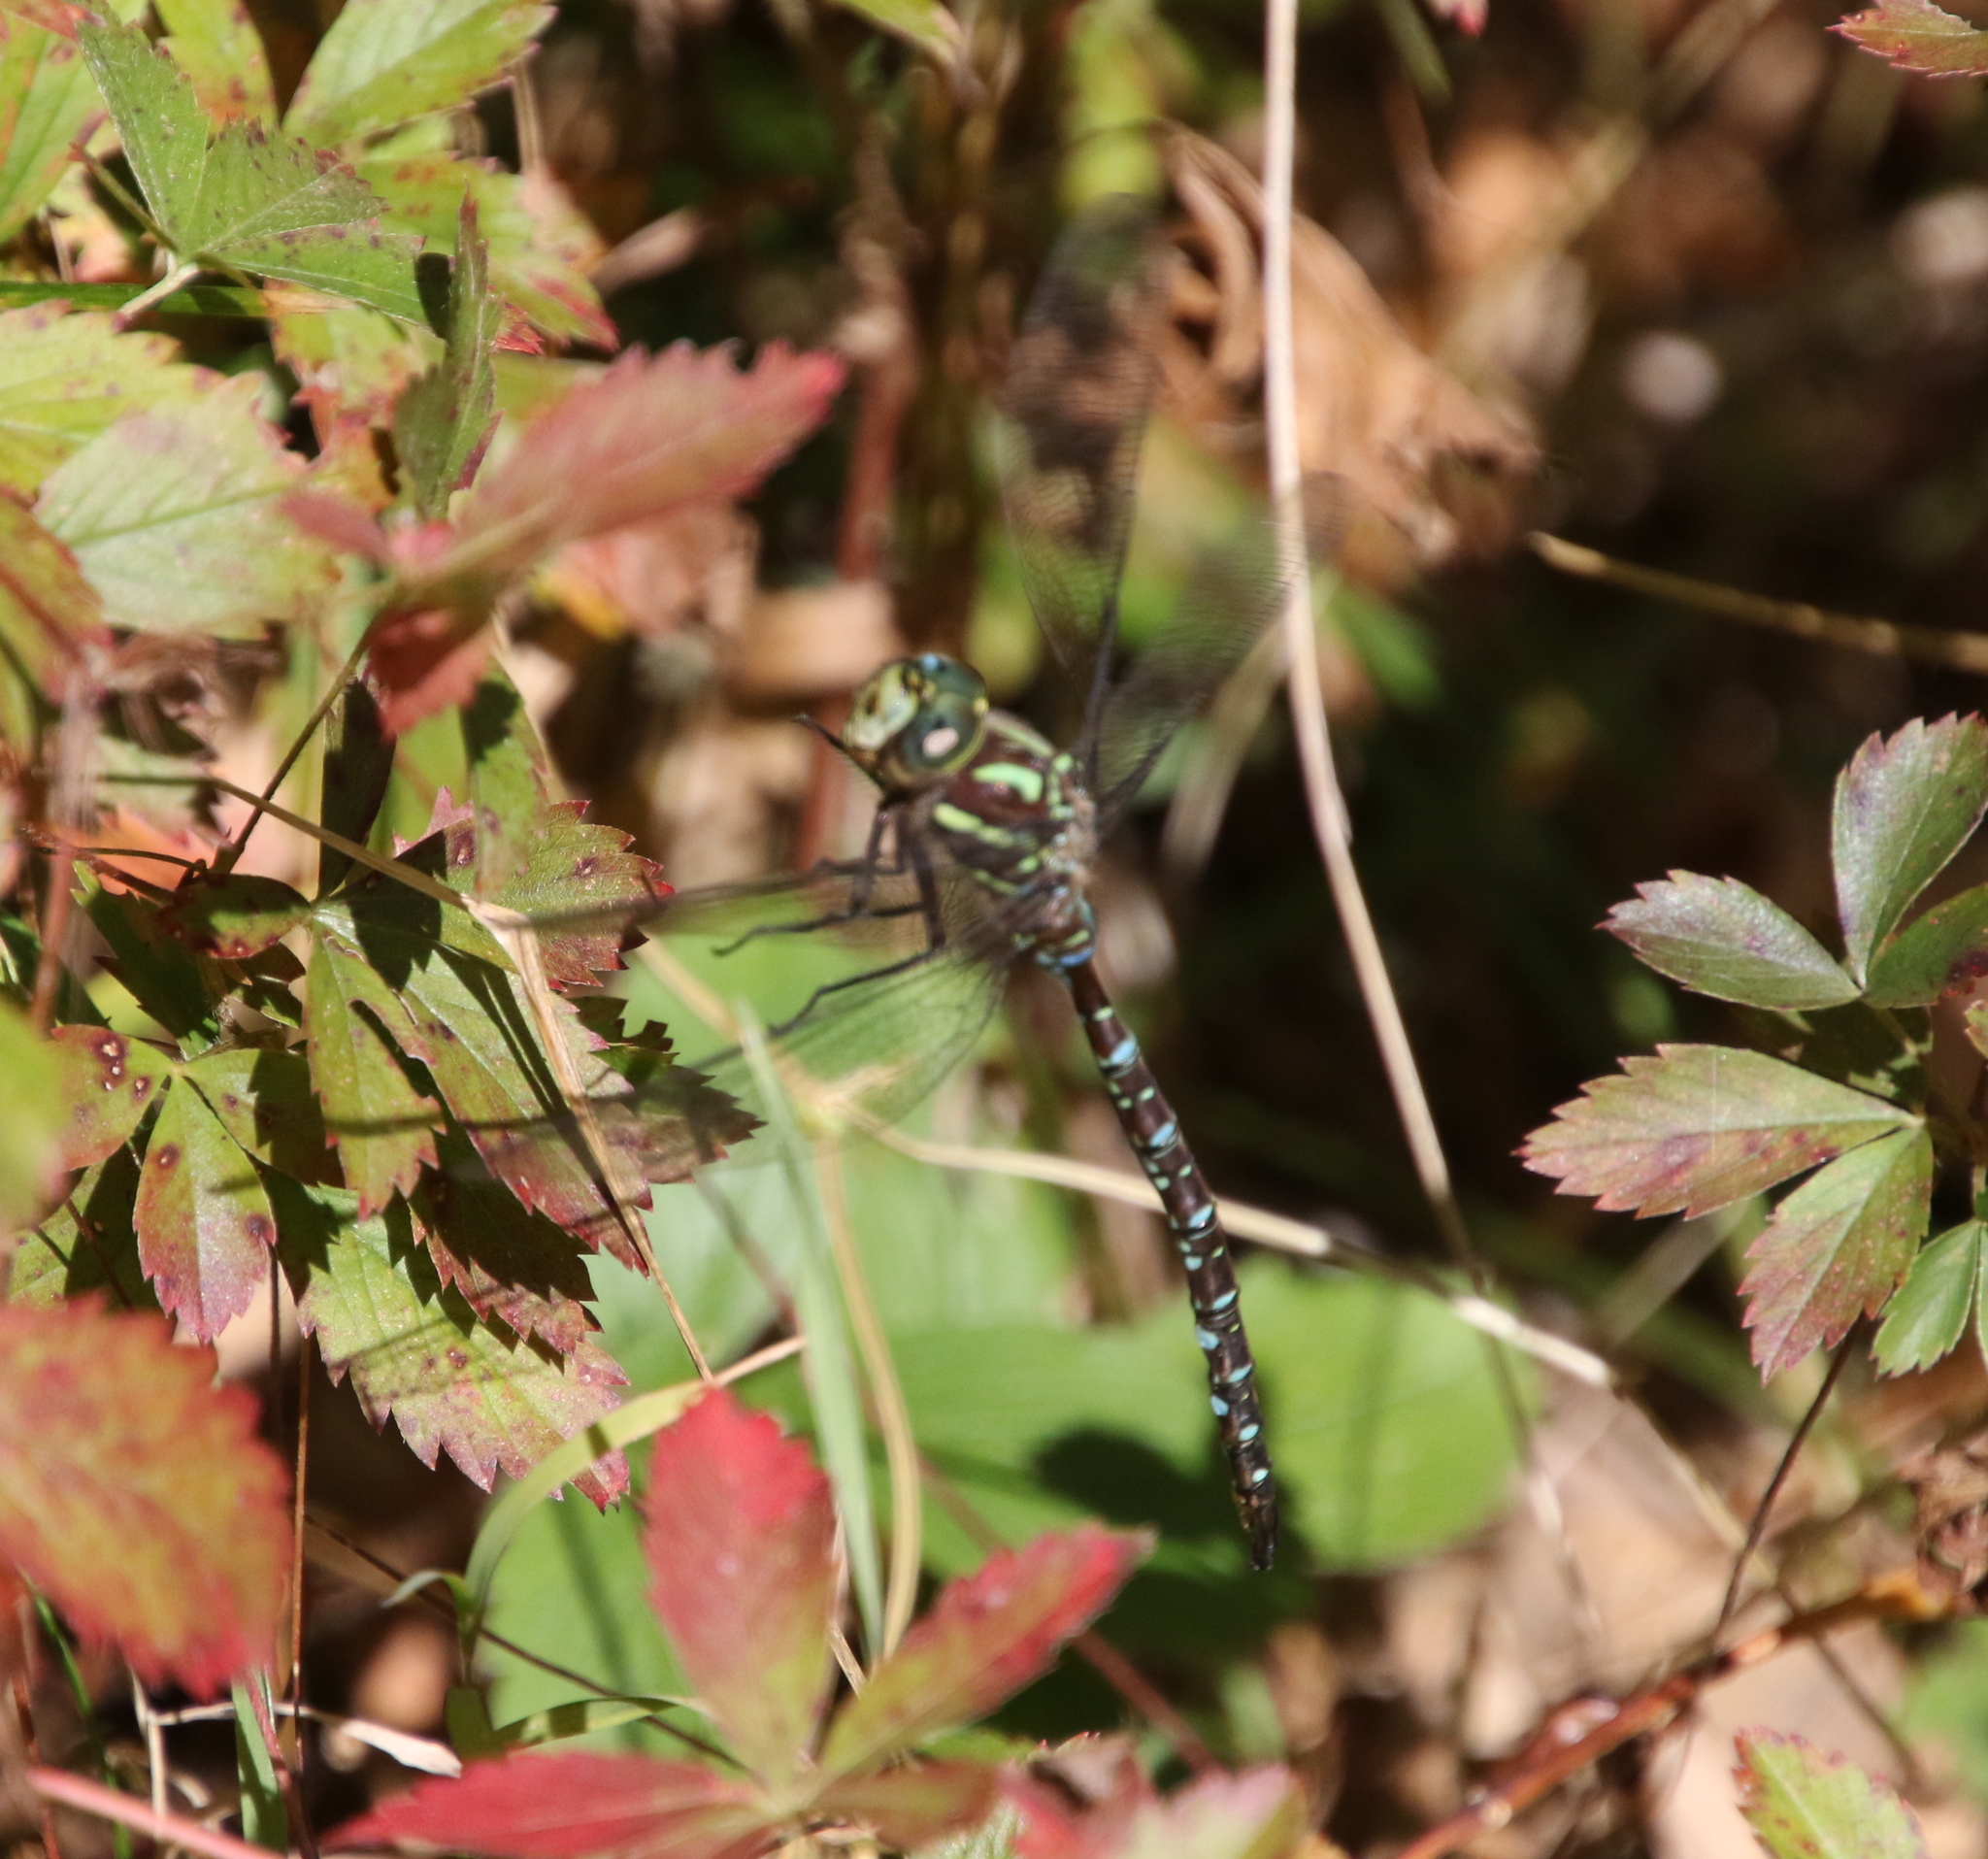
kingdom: Animalia
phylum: Arthropoda
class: Insecta
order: Odonata
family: Aeshnidae
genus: Aeshna
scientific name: Aeshna umbrosa
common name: Shadow darner
